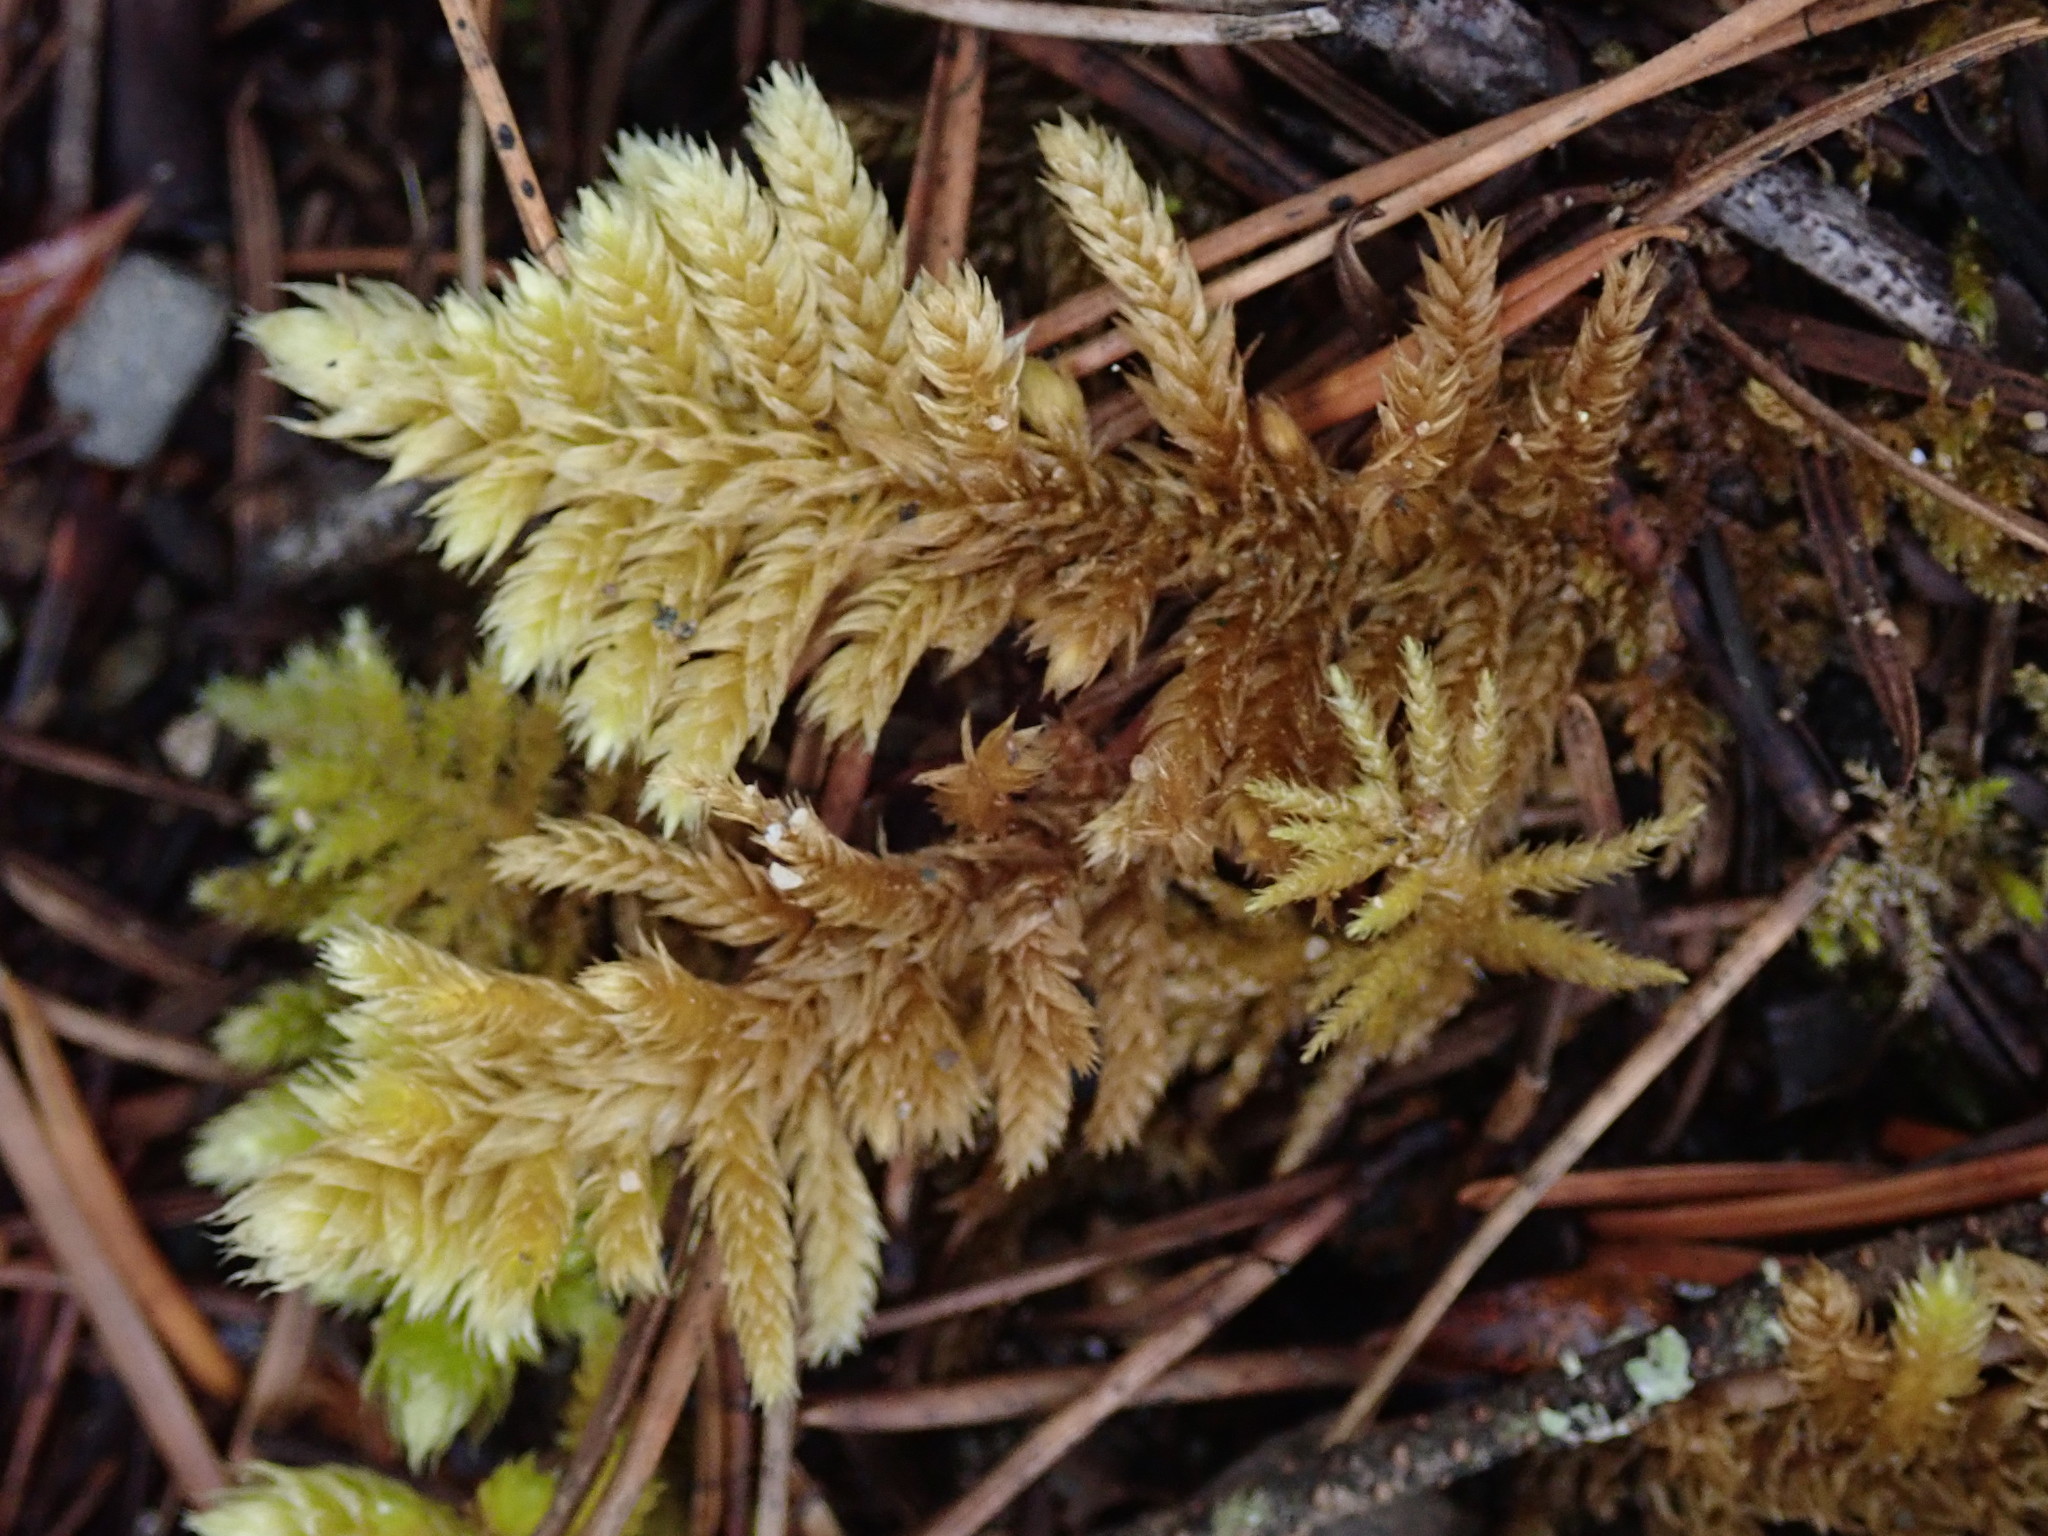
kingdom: Plantae
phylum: Bryophyta
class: Bryopsida
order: Hypnales
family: Brachytheciaceae
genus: Homalothecium
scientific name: Homalothecium megaptilum
